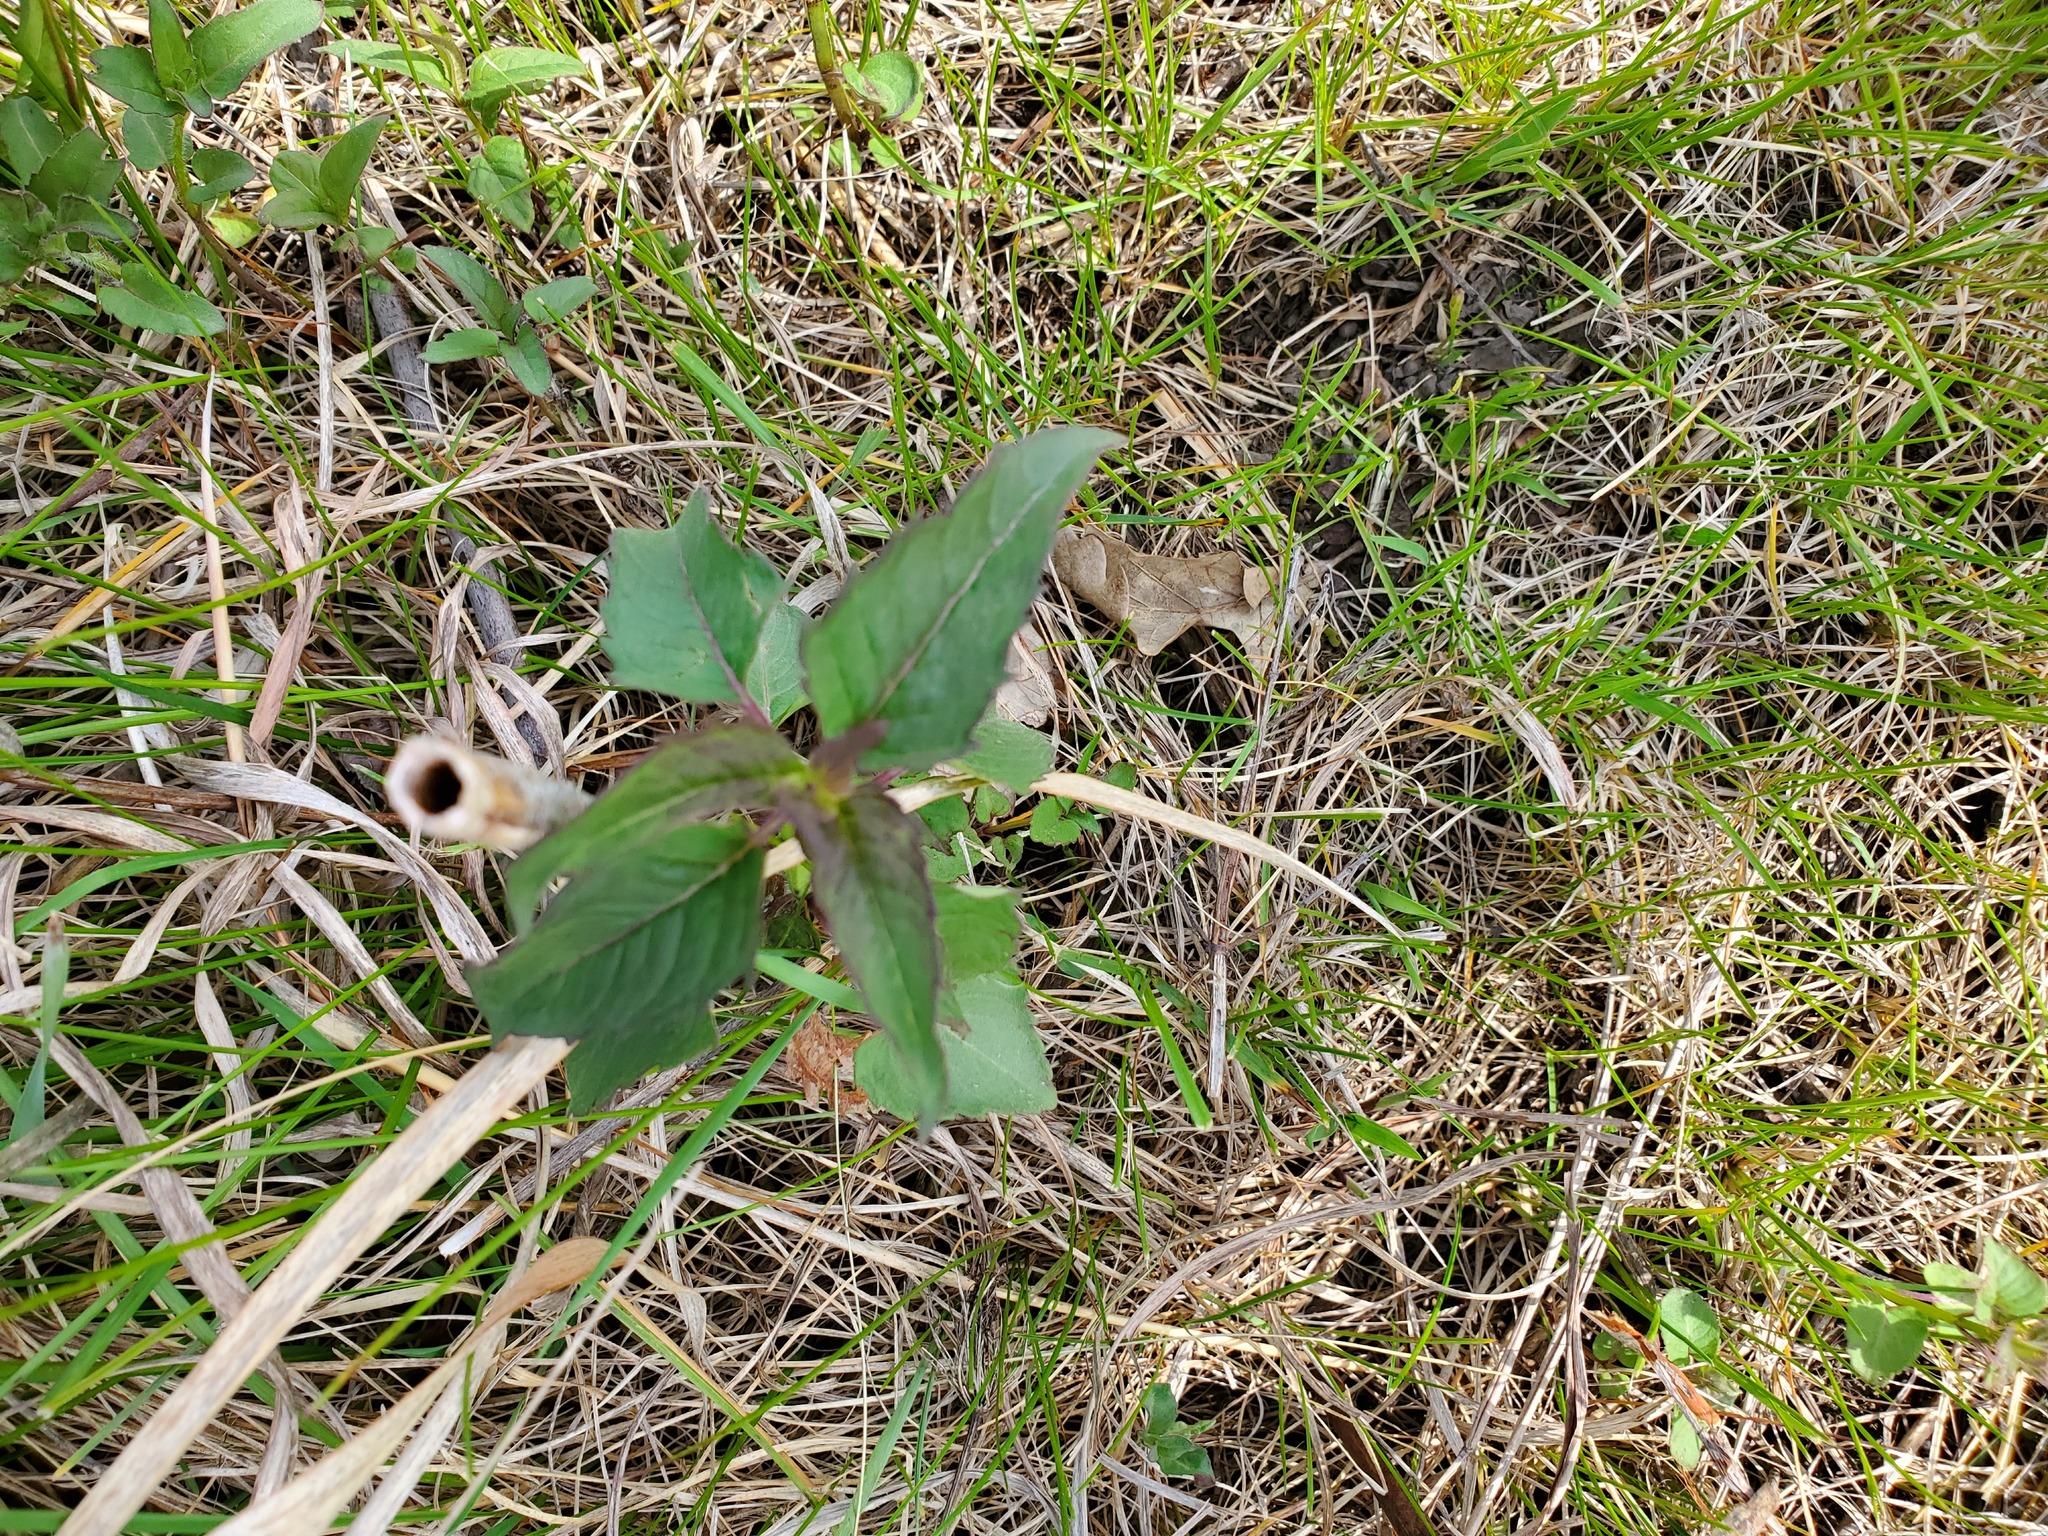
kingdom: Plantae
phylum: Tracheophyta
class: Magnoliopsida
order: Lamiales
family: Lamiaceae
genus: Monarda
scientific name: Monarda fistulosa
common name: Purple beebalm
